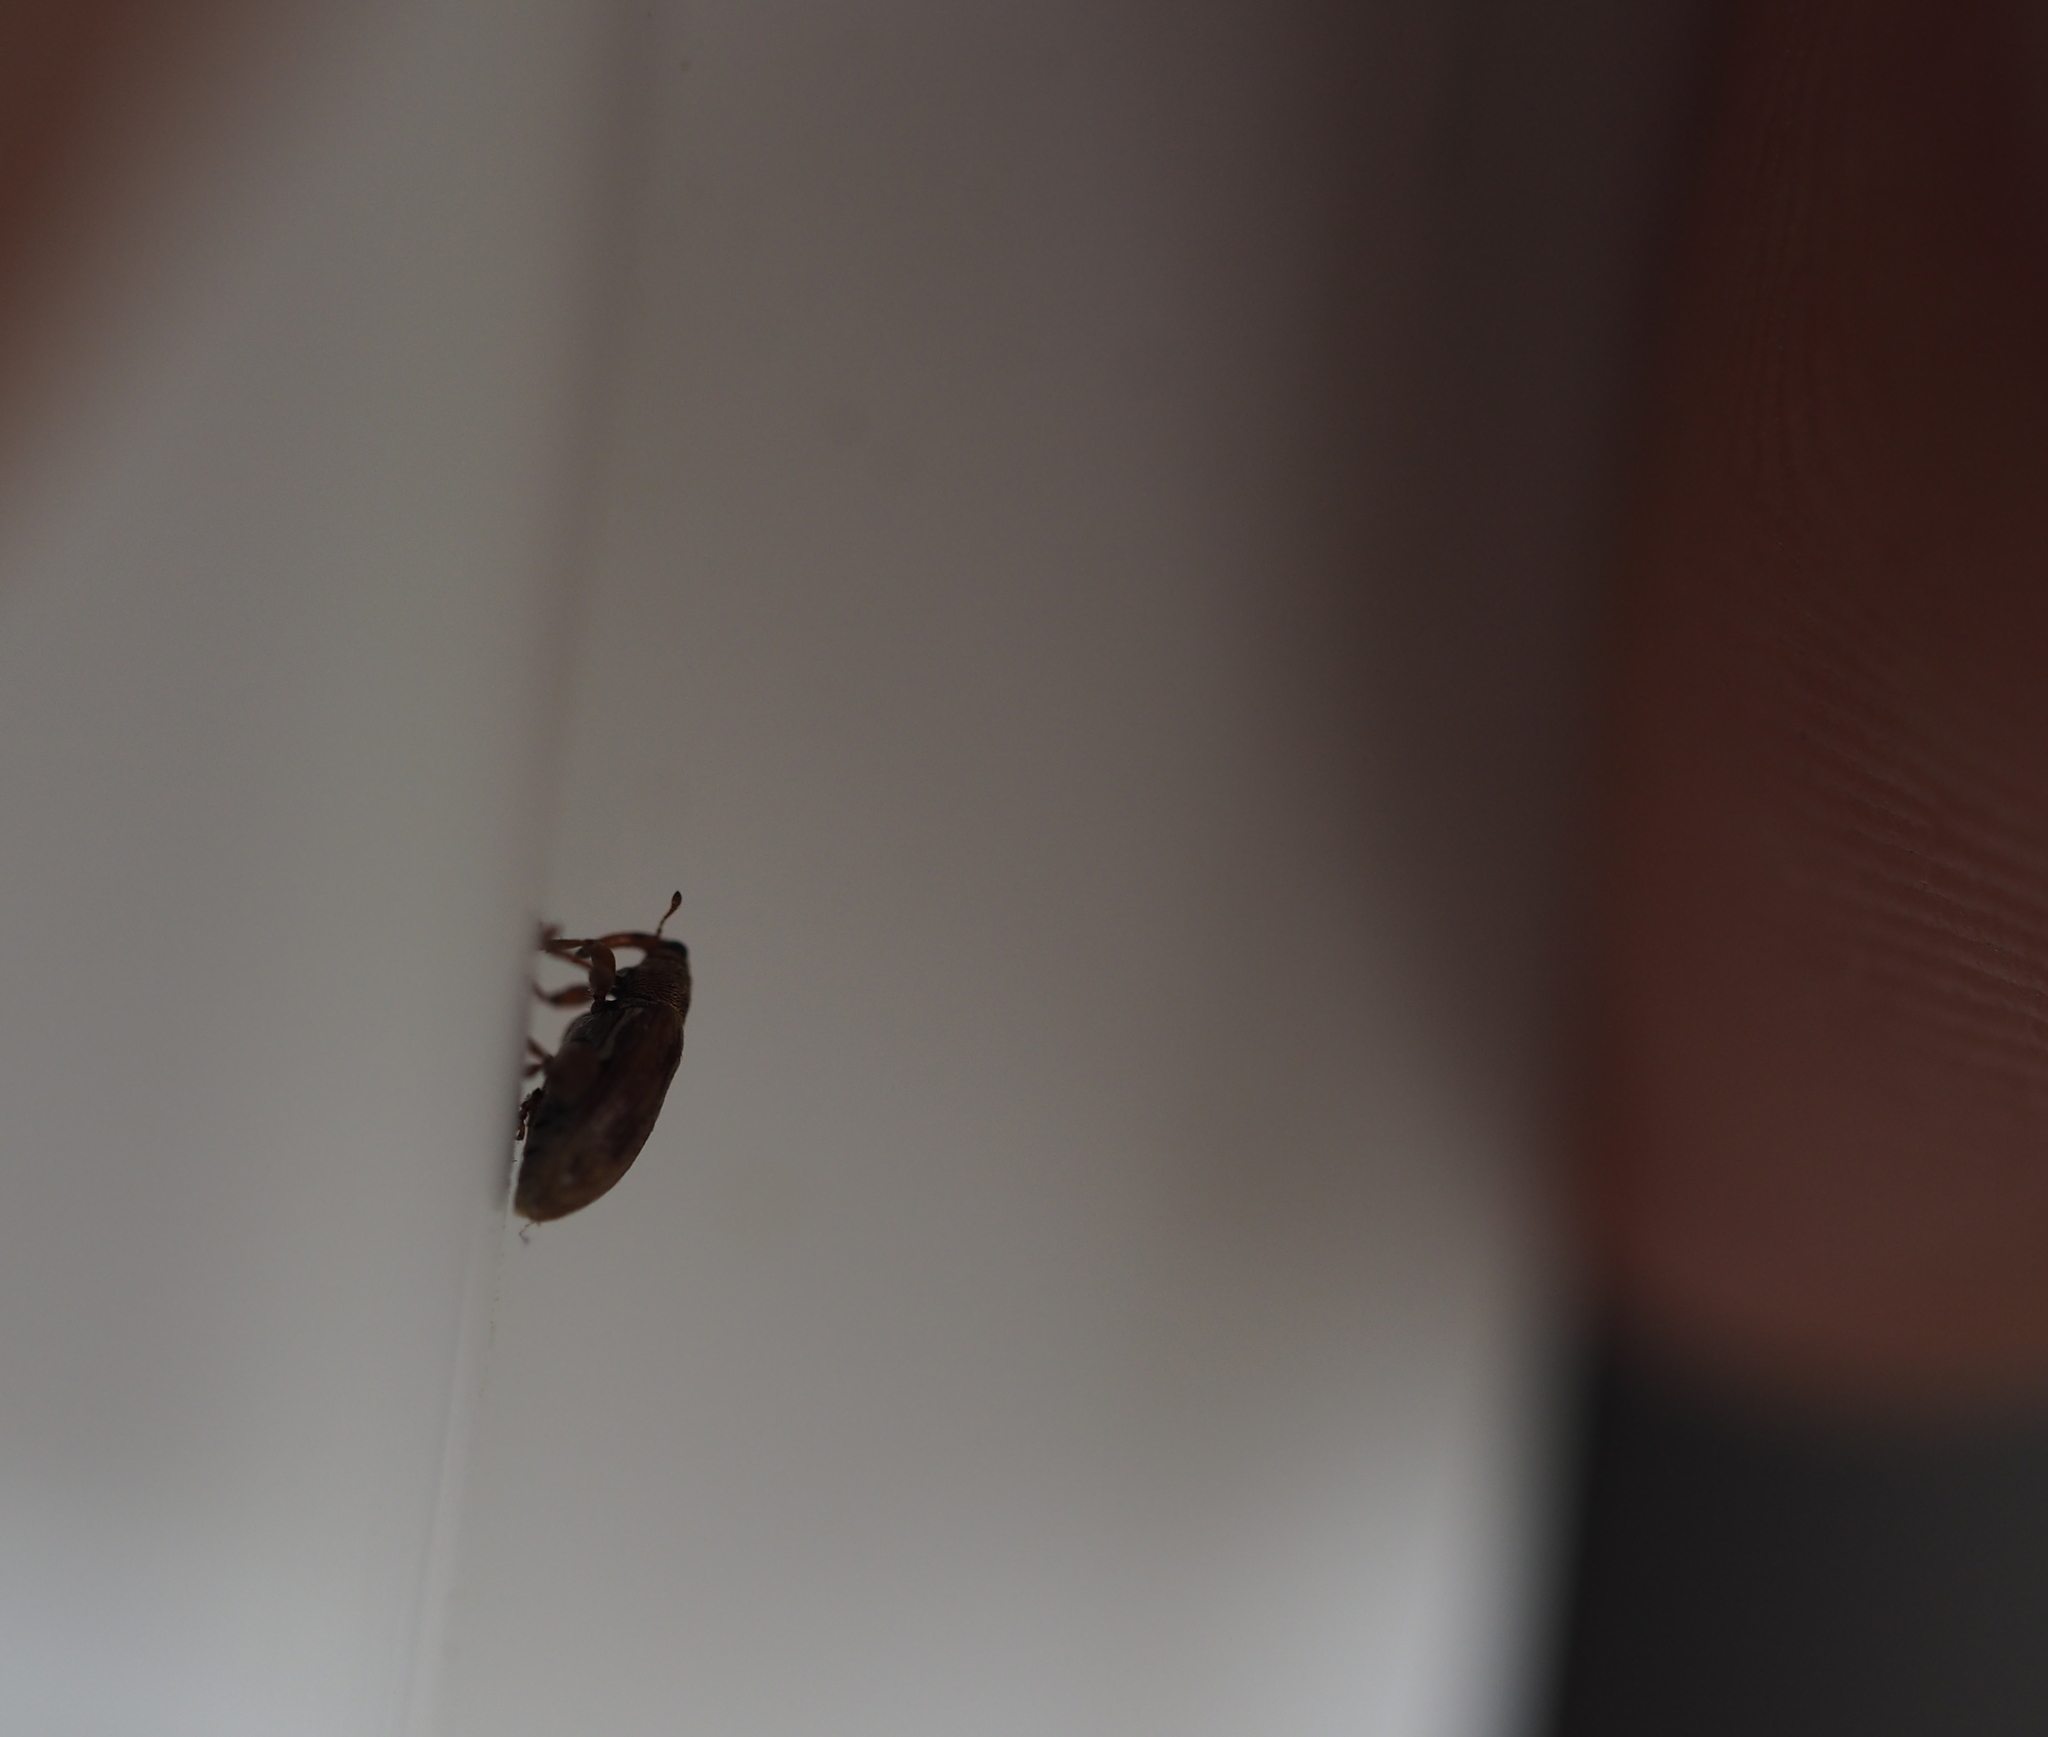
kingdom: Animalia
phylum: Arthropoda
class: Insecta
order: Coleoptera
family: Curculionidae
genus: Orchestes
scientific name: Orchestes testaceus
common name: Jumping weevil
